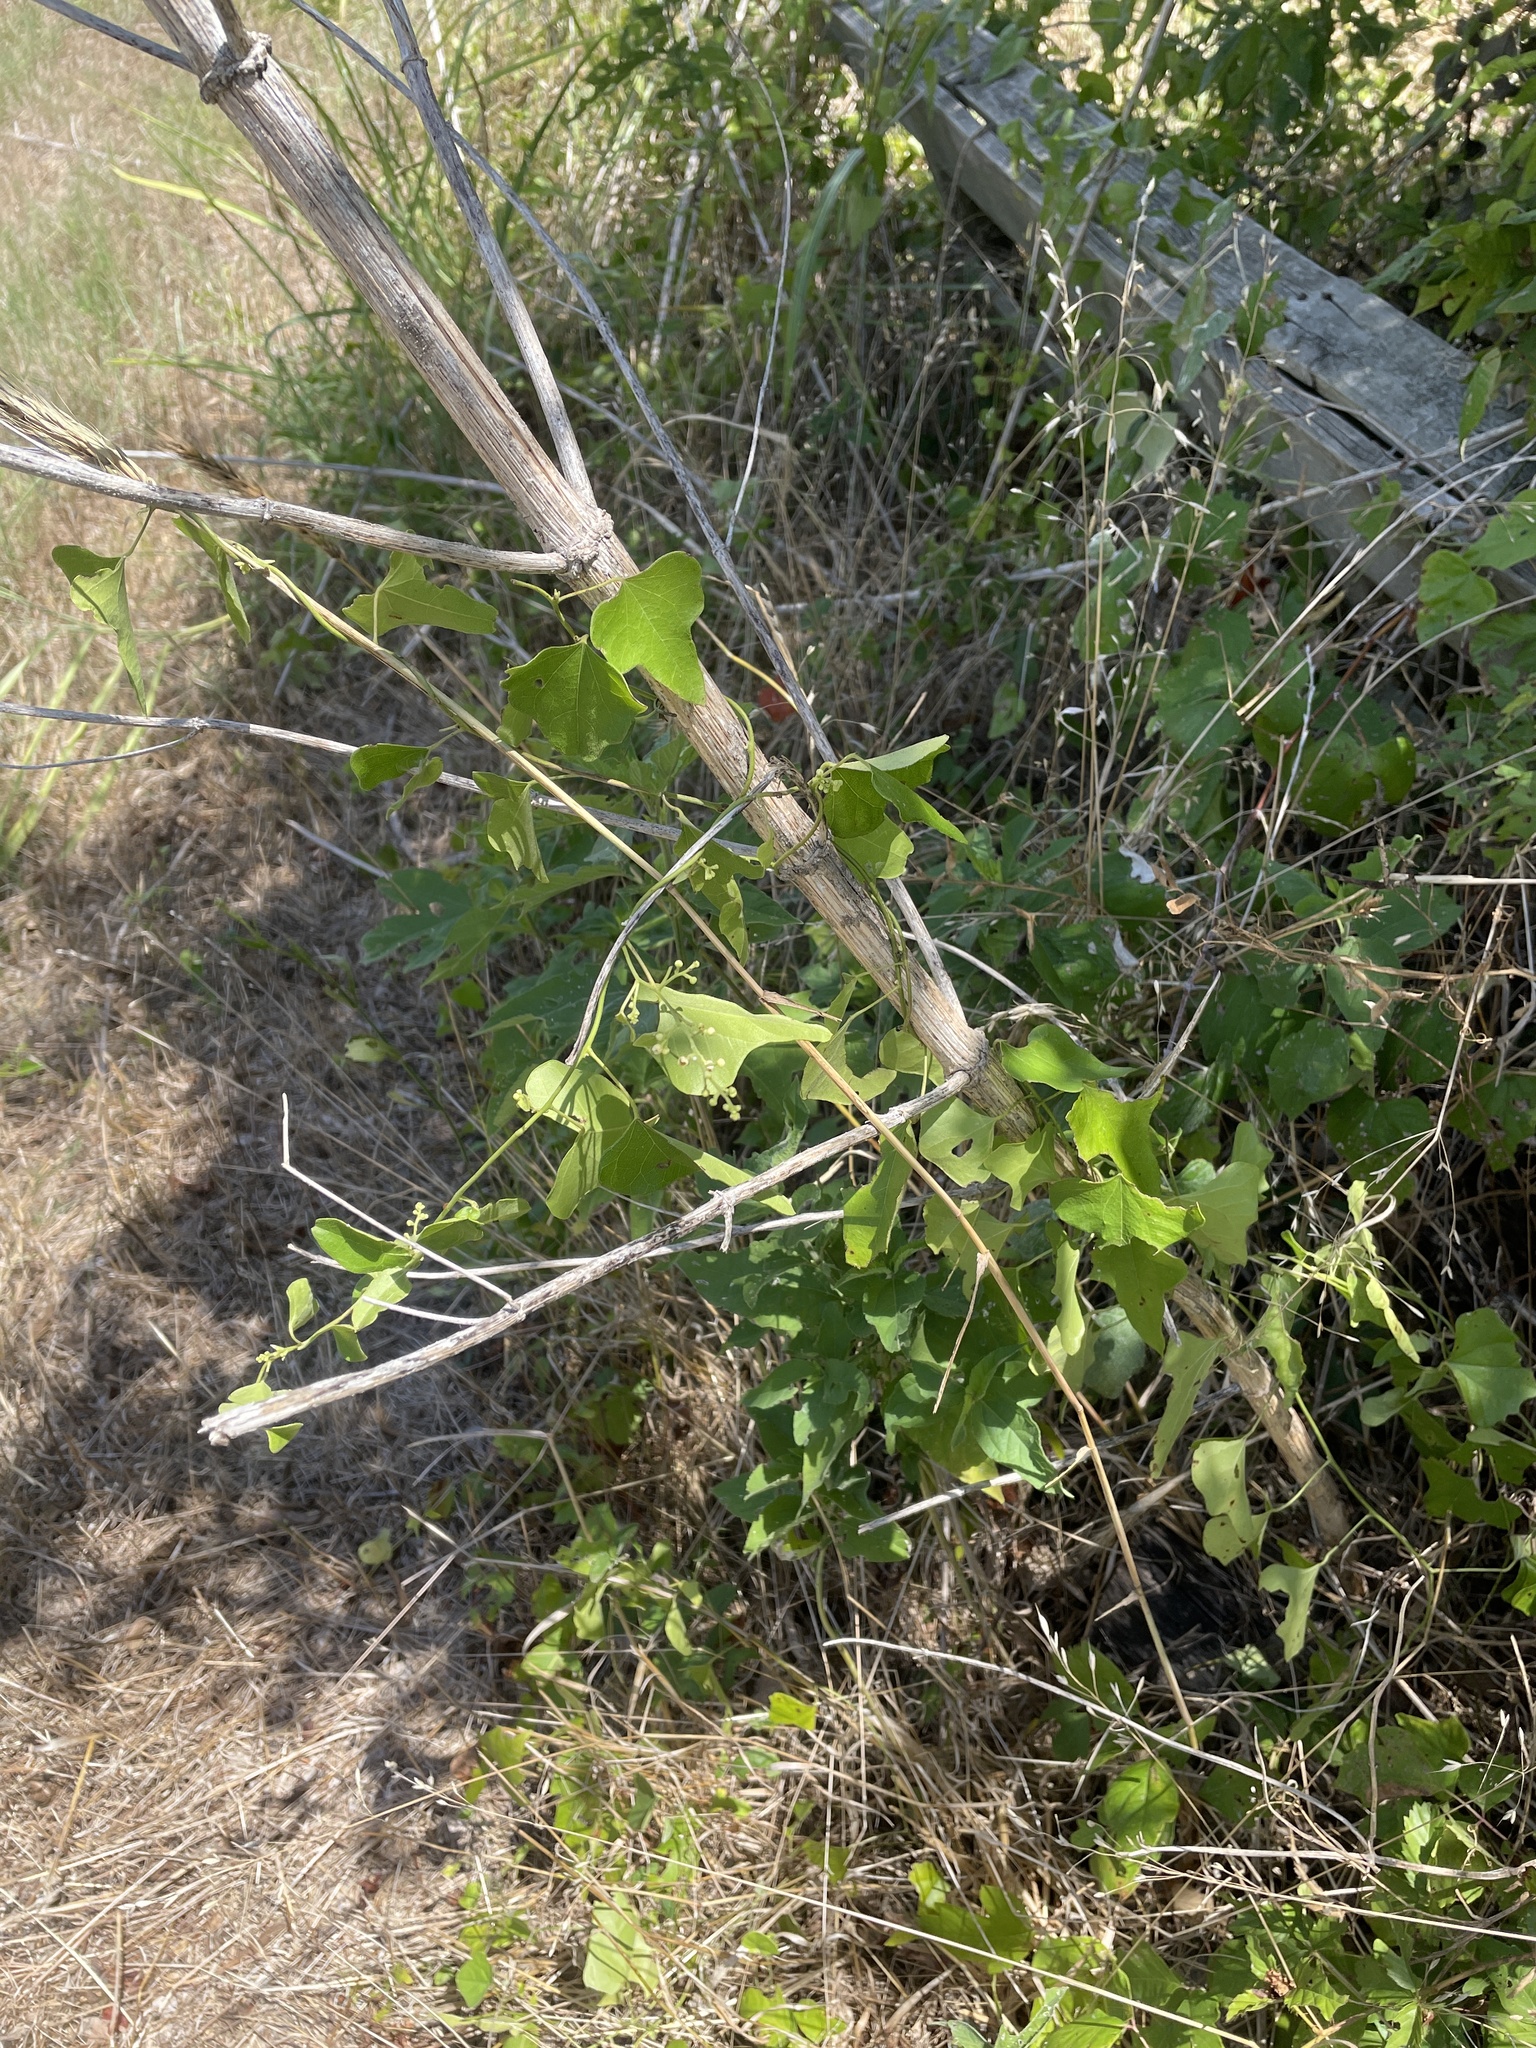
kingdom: Plantae
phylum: Tracheophyta
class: Magnoliopsida
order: Ranunculales
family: Menispermaceae
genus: Cocculus
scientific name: Cocculus carolinus
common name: Carolina moonseed
